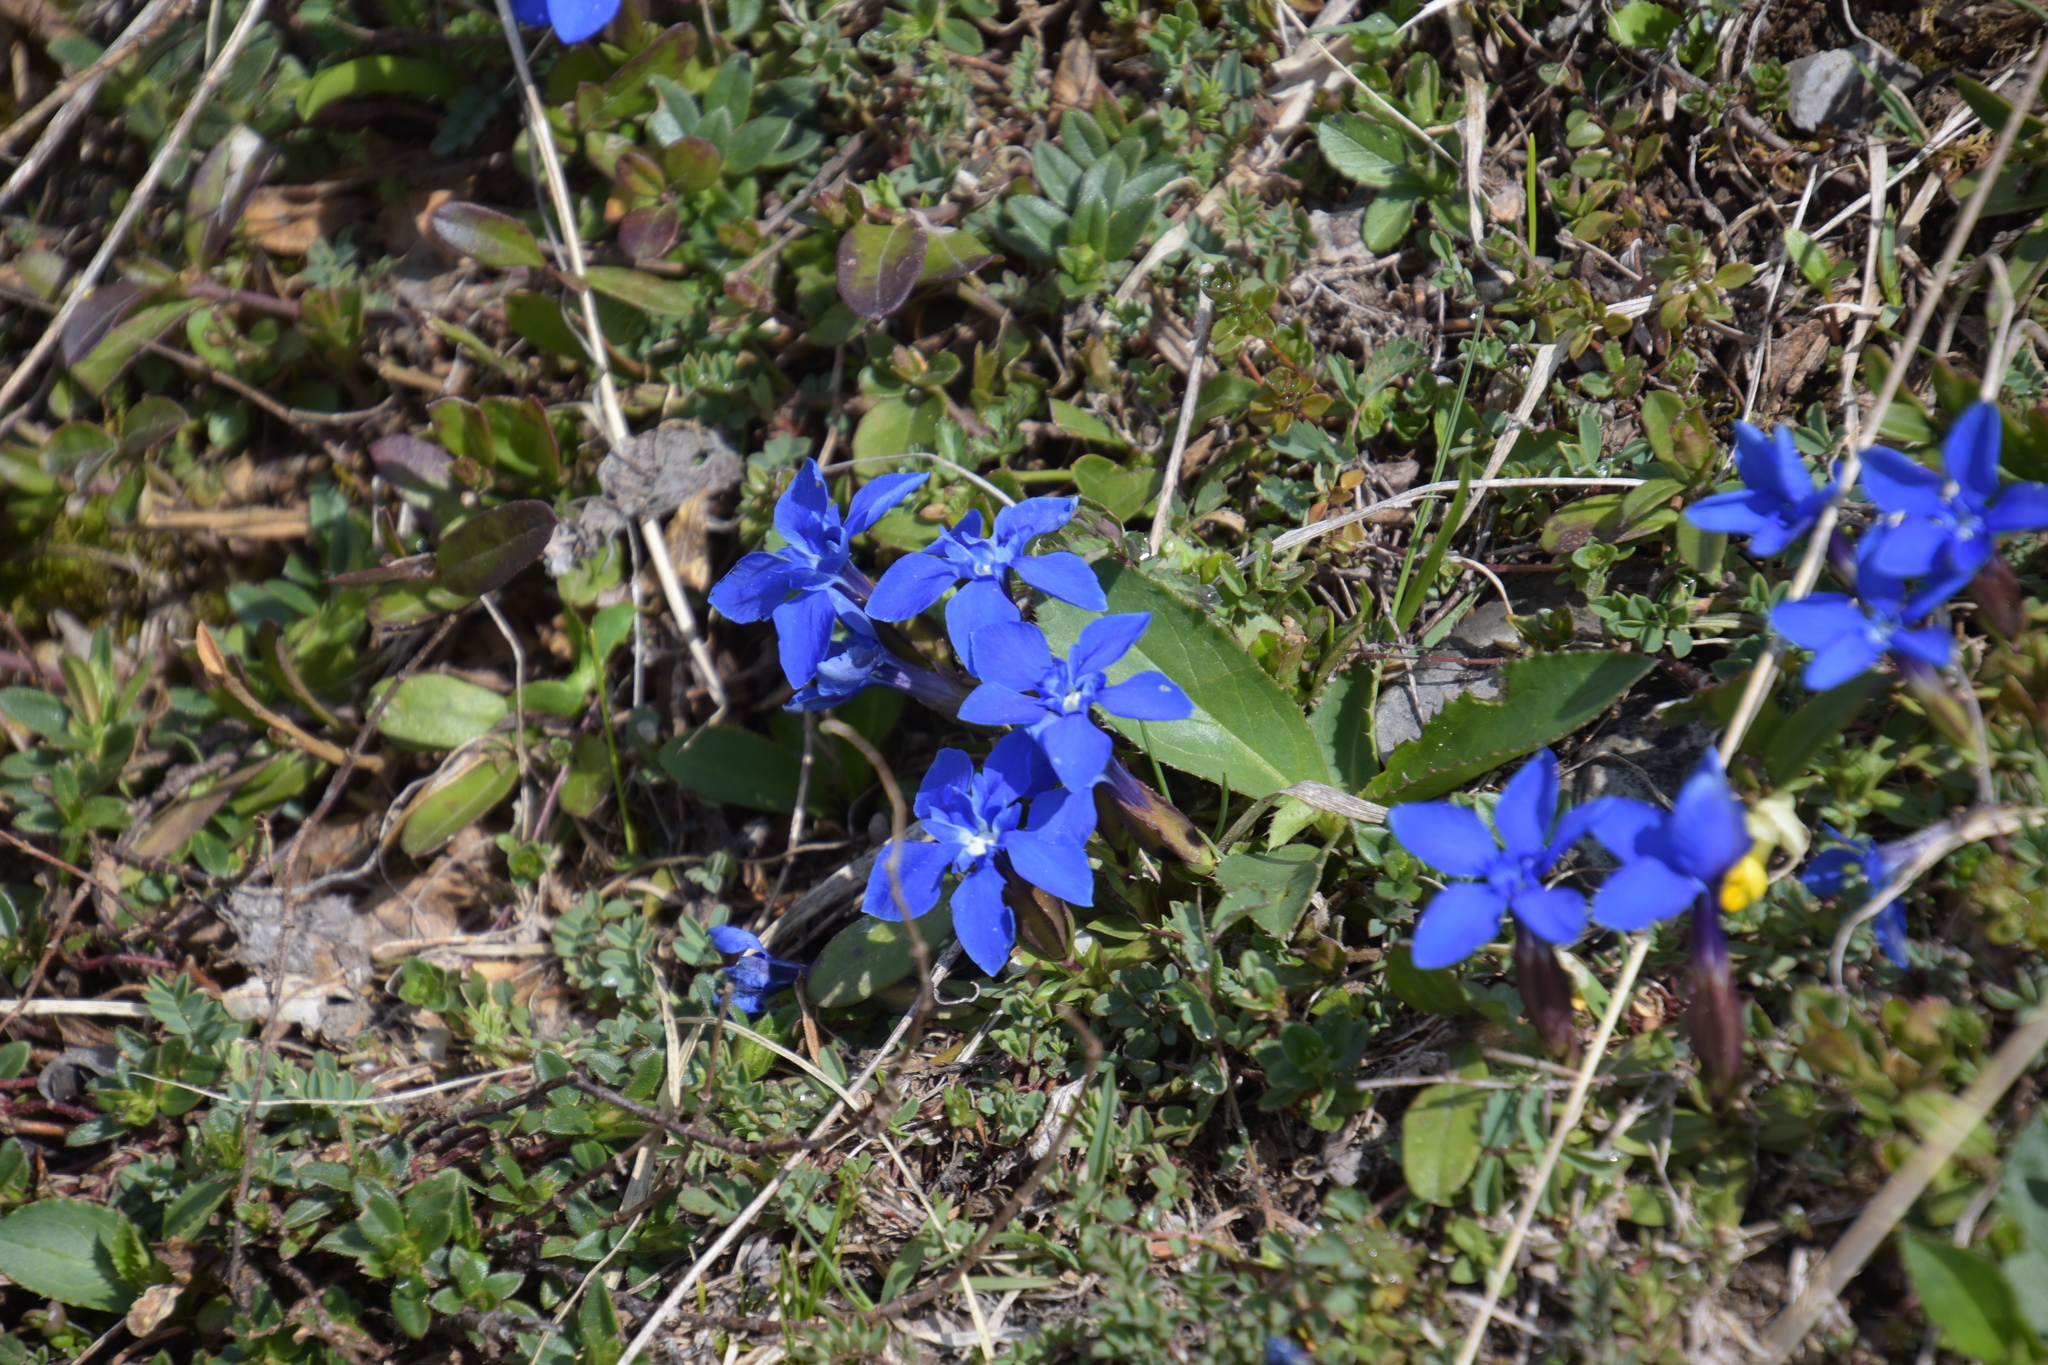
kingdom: Plantae
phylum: Tracheophyta
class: Magnoliopsida
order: Gentianales
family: Gentianaceae
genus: Gentiana
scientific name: Gentiana verna
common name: Spring gentian
